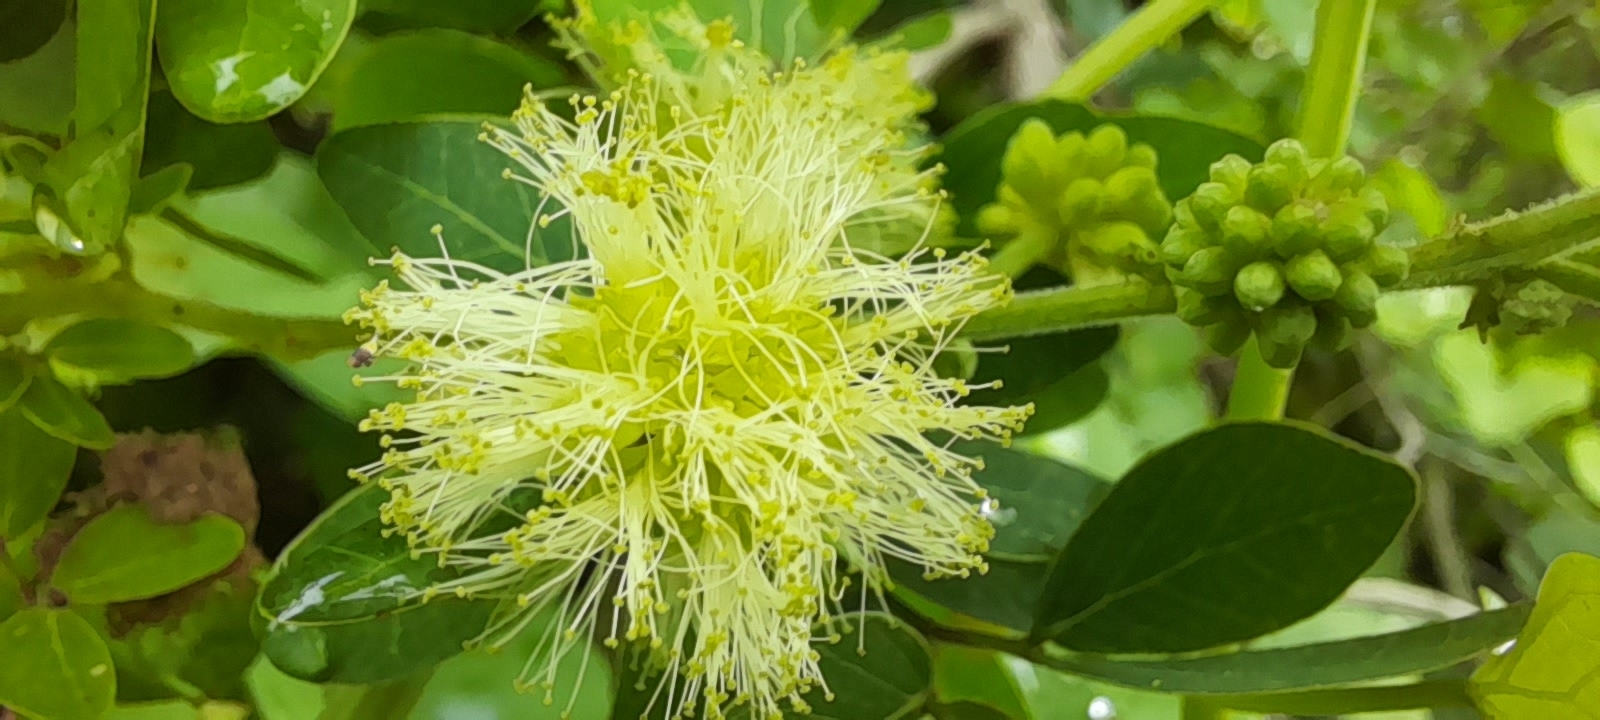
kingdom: Plantae
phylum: Tracheophyta
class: Magnoliopsida
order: Fabales
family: Fabaceae
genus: Pithecellobium
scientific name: Pithecellobium dulce
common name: Monkeypod
